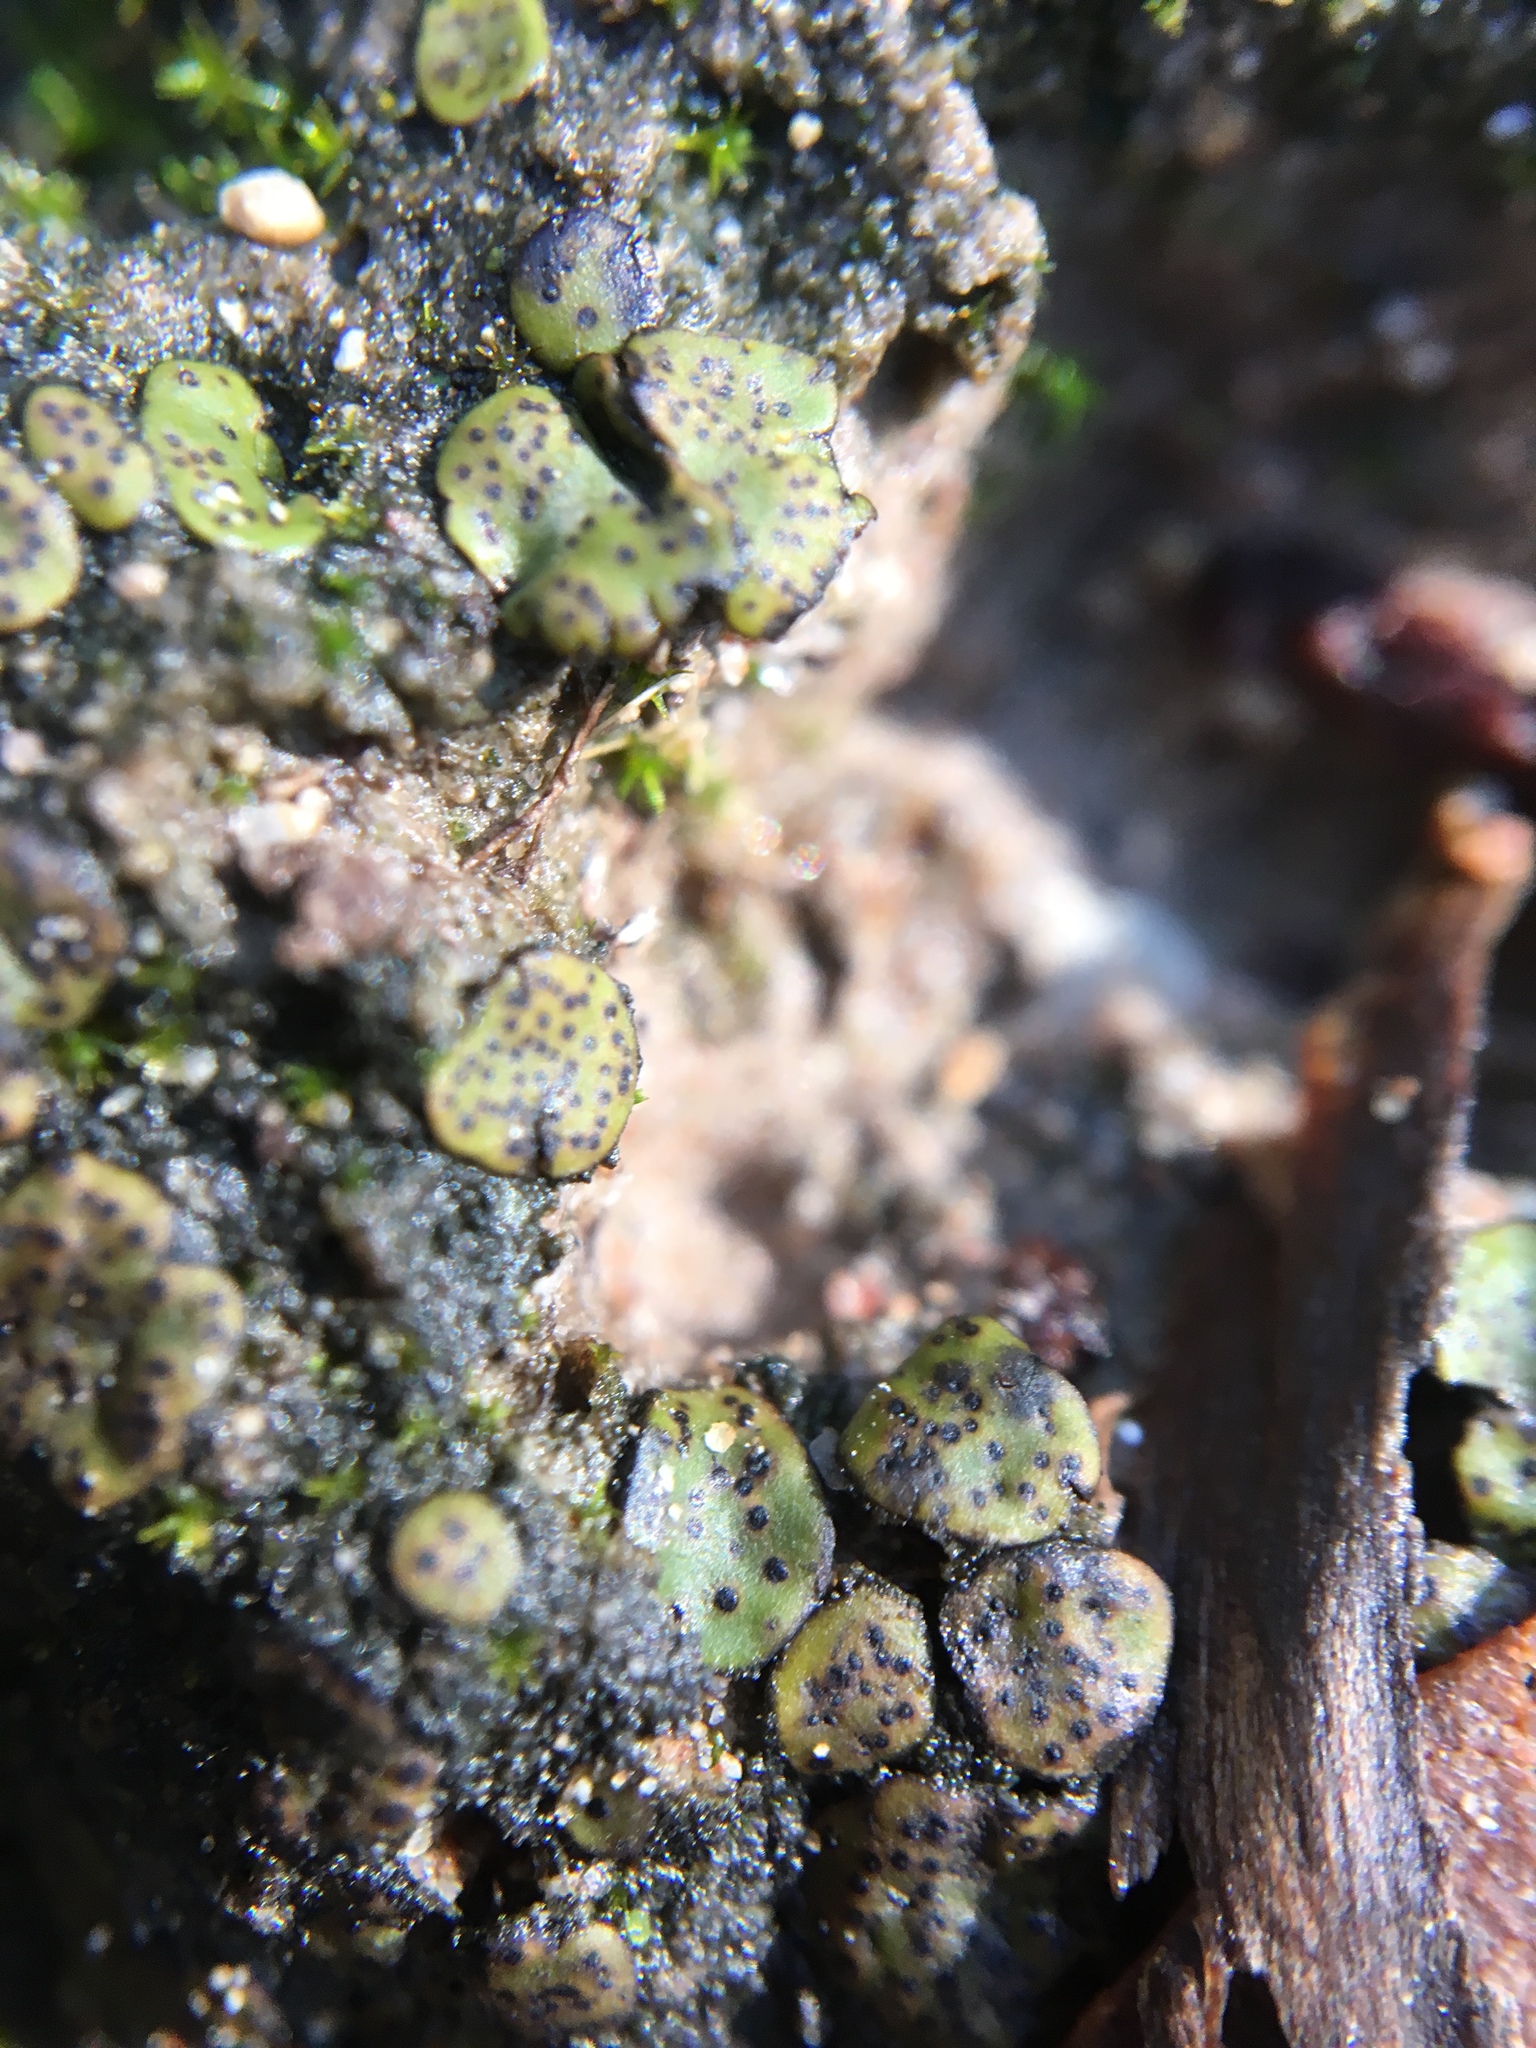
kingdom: Fungi
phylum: Ascomycota
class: Eurotiomycetes
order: Verrucariales
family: Verrucariaceae
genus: Clavascidium
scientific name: Clavascidium lacinulatum
